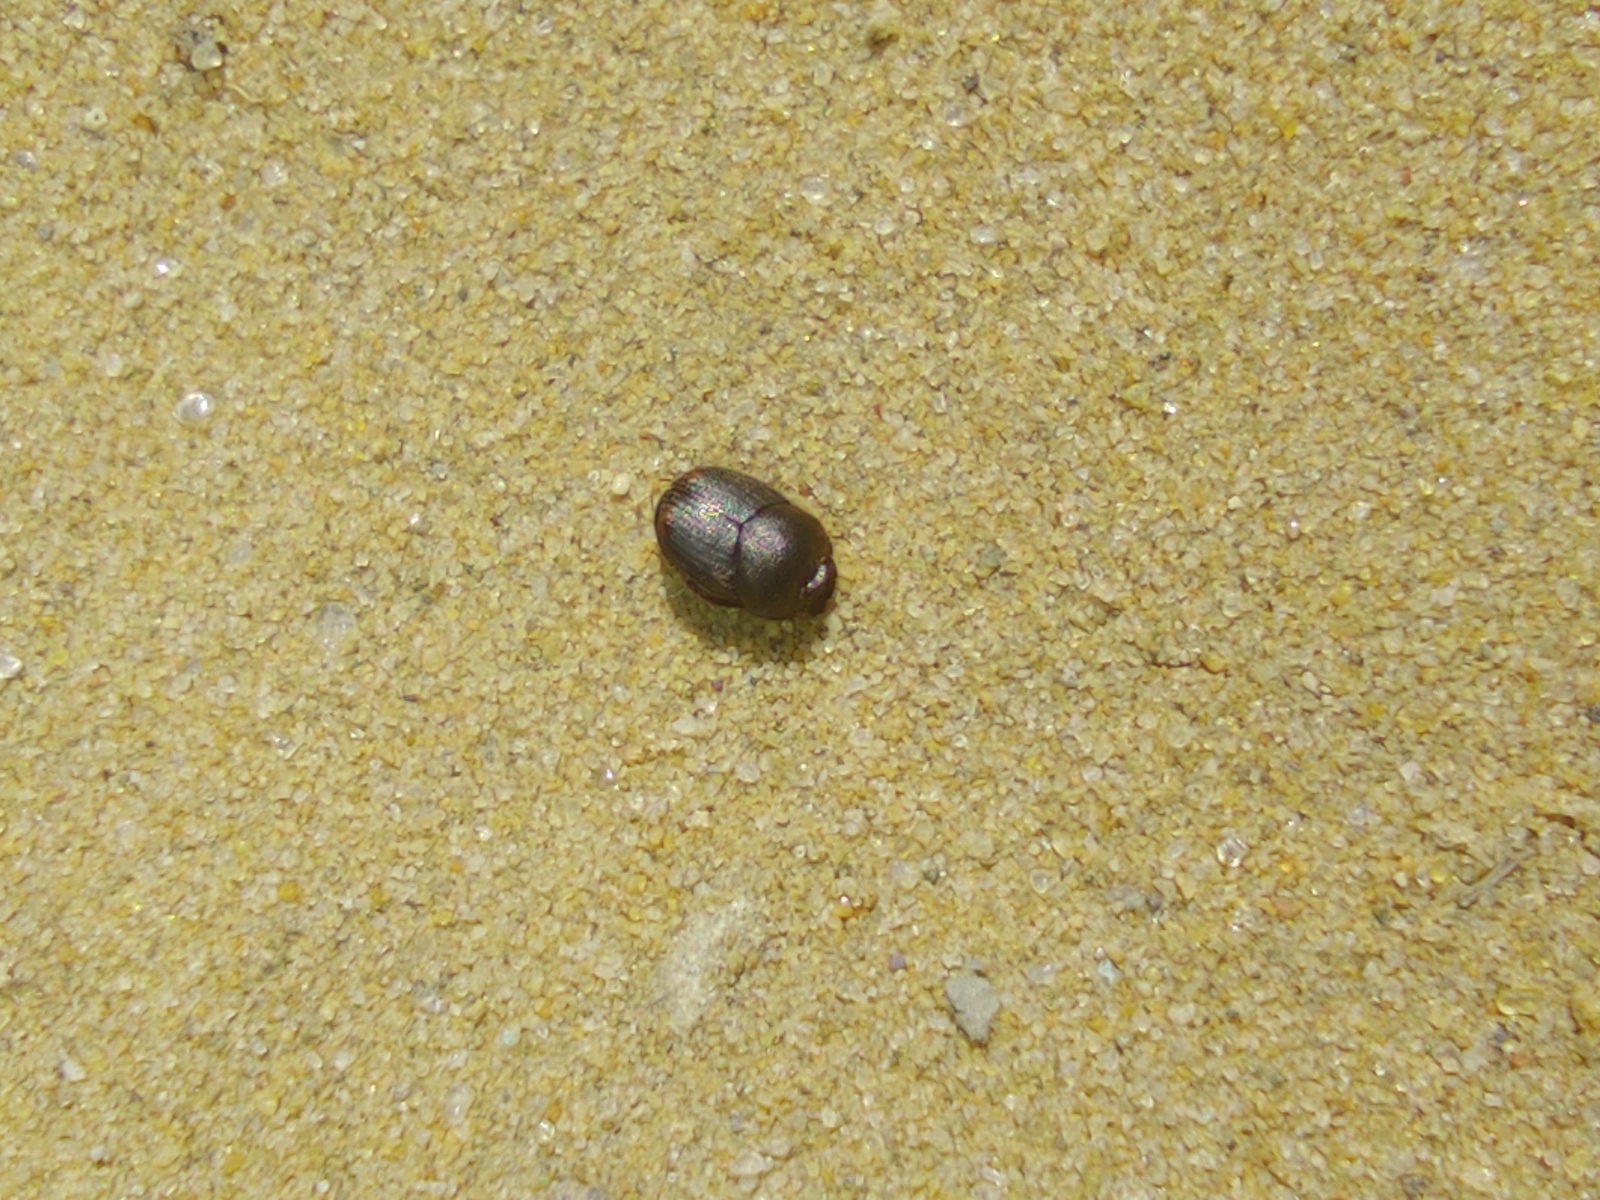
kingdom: Animalia
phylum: Arthropoda
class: Insecta
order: Coleoptera
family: Scarabaeidae
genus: Onthophagus
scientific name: Onthophagus furcatus
